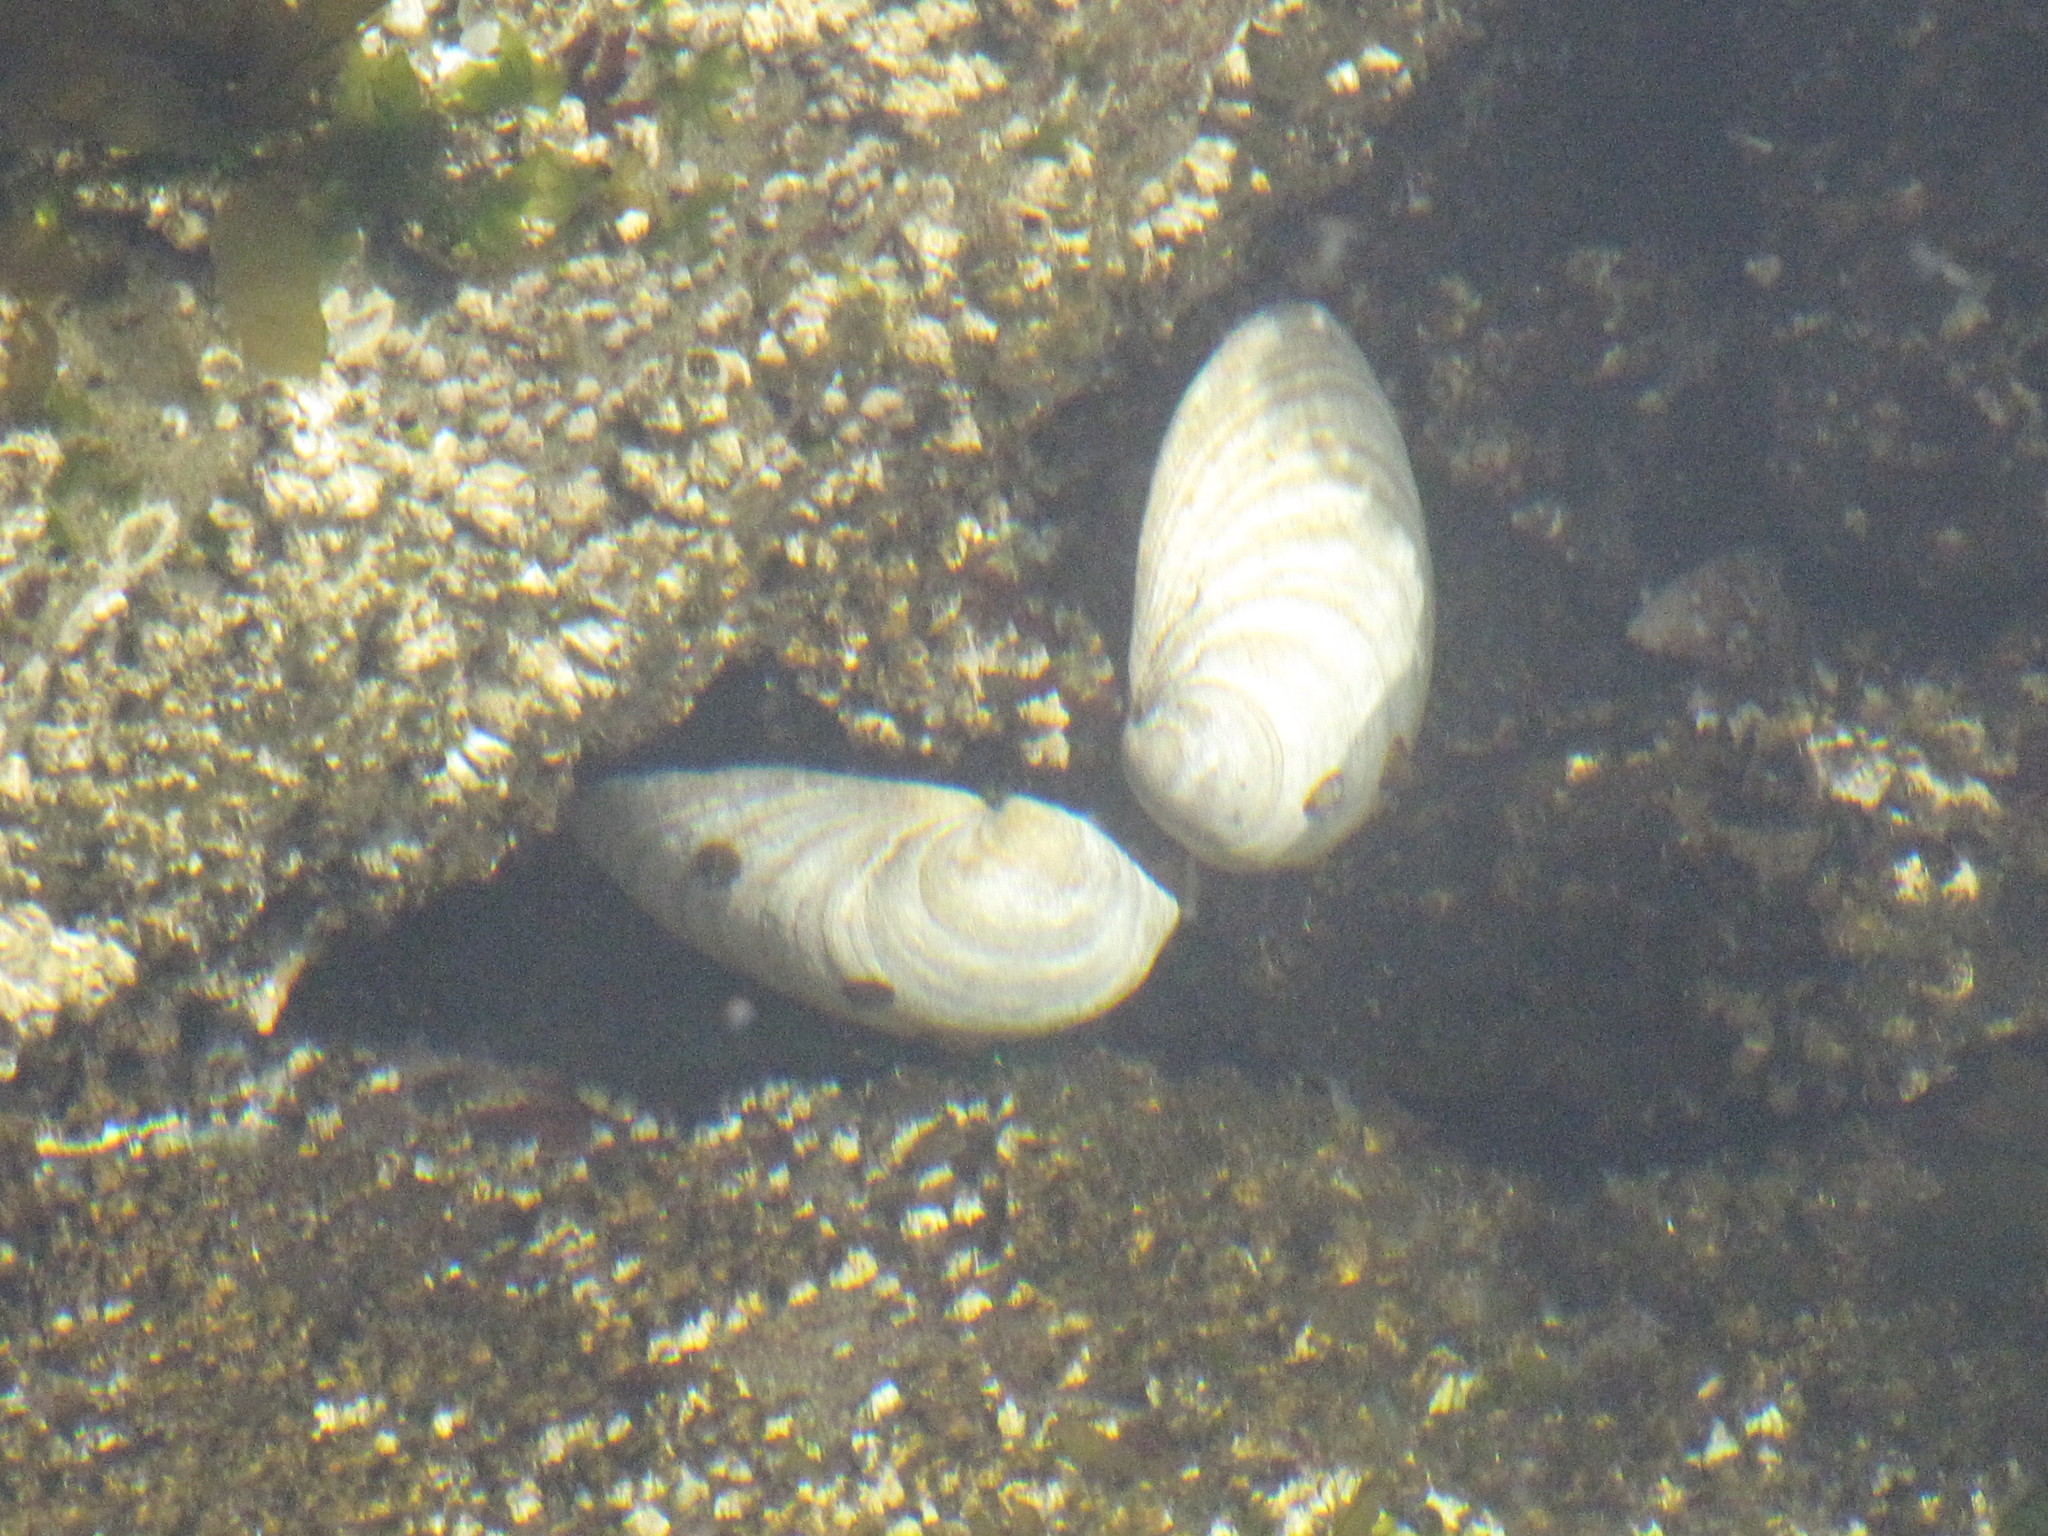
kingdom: Animalia
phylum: Mollusca
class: Bivalvia
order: Venerida
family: Veneridae
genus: Saxidomus
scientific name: Saxidomus gigantea
